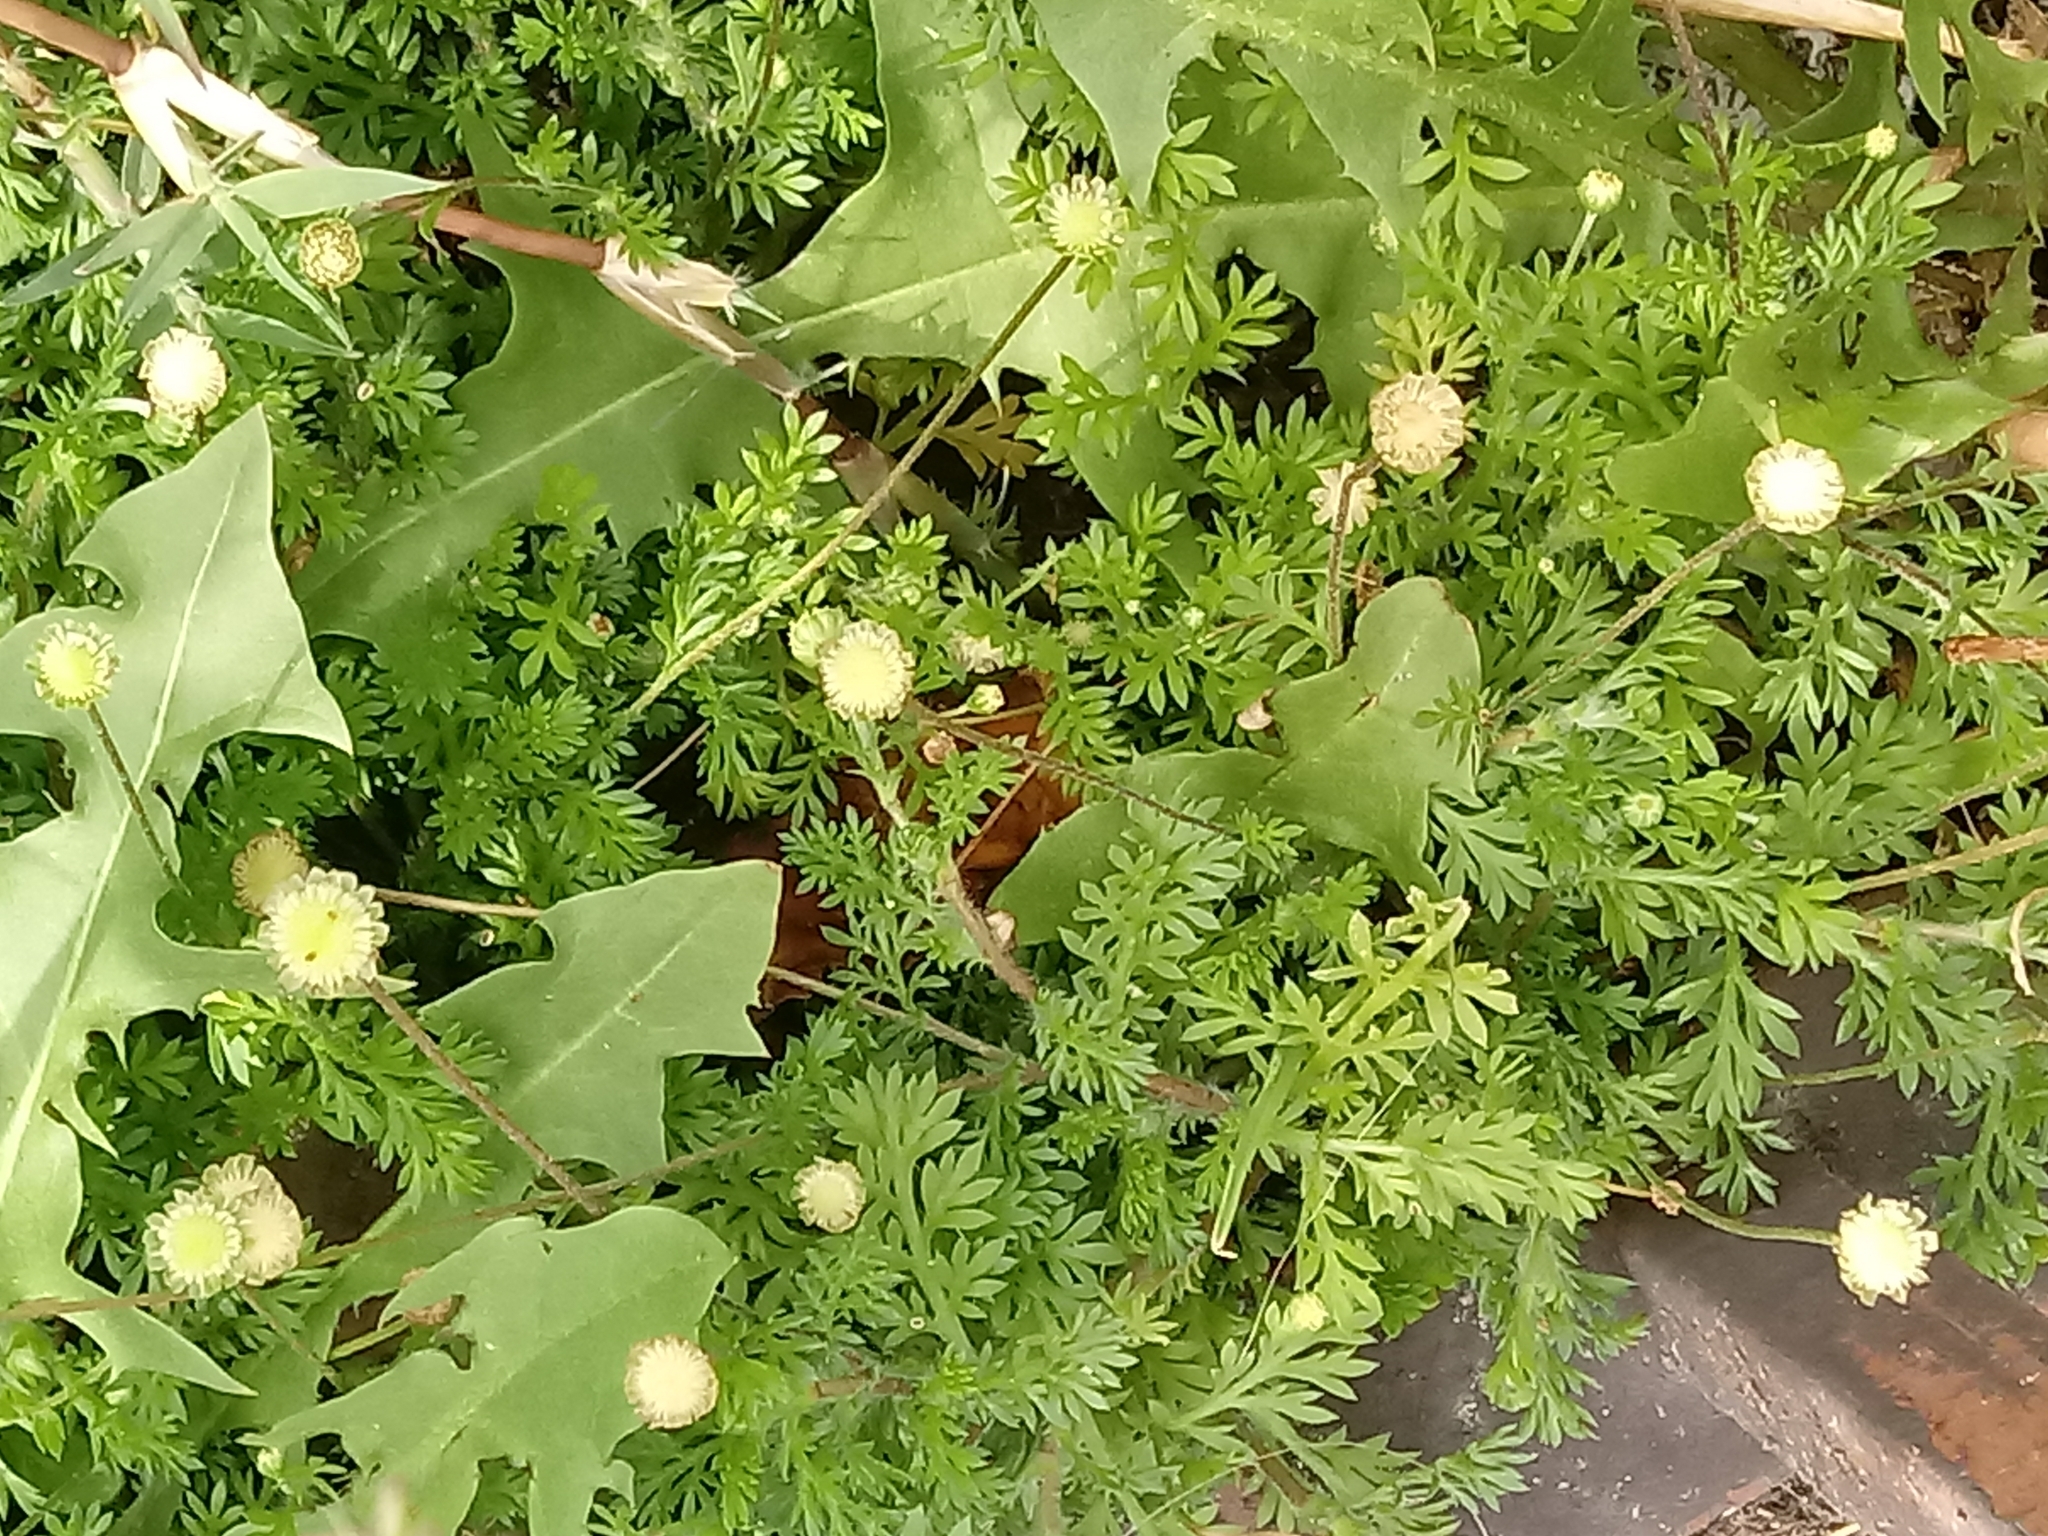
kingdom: Plantae
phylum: Tracheophyta
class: Magnoliopsida
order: Asterales
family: Asteraceae
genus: Cotula
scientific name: Cotula australis
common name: Australian waterbuttons
